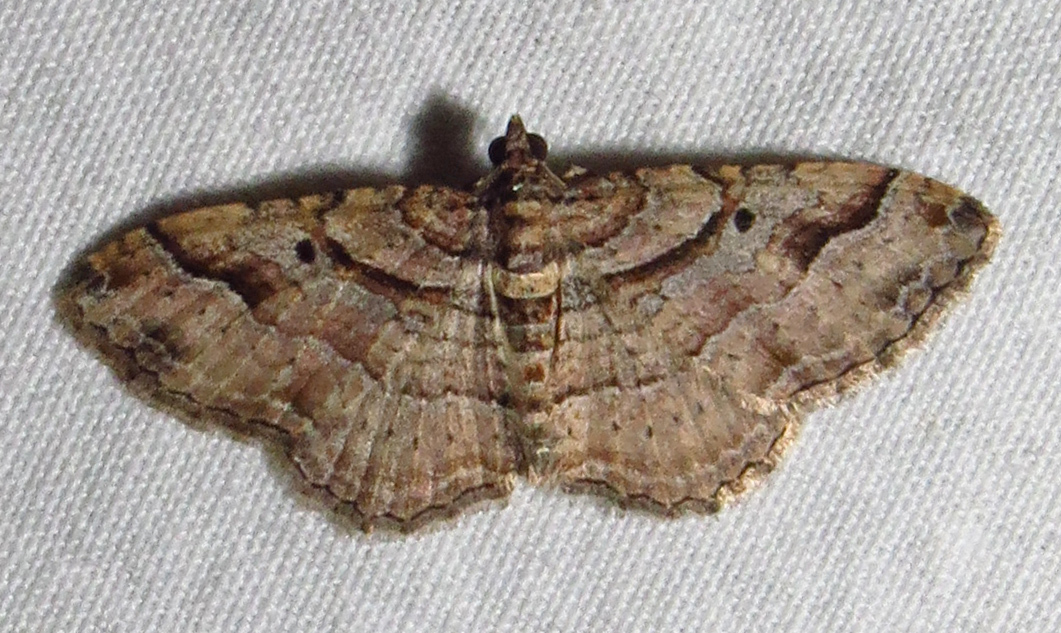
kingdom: Animalia
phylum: Arthropoda
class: Insecta
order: Lepidoptera
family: Geometridae
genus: Costaconvexa
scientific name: Costaconvexa centrostrigaria
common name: Bent-line carpet
